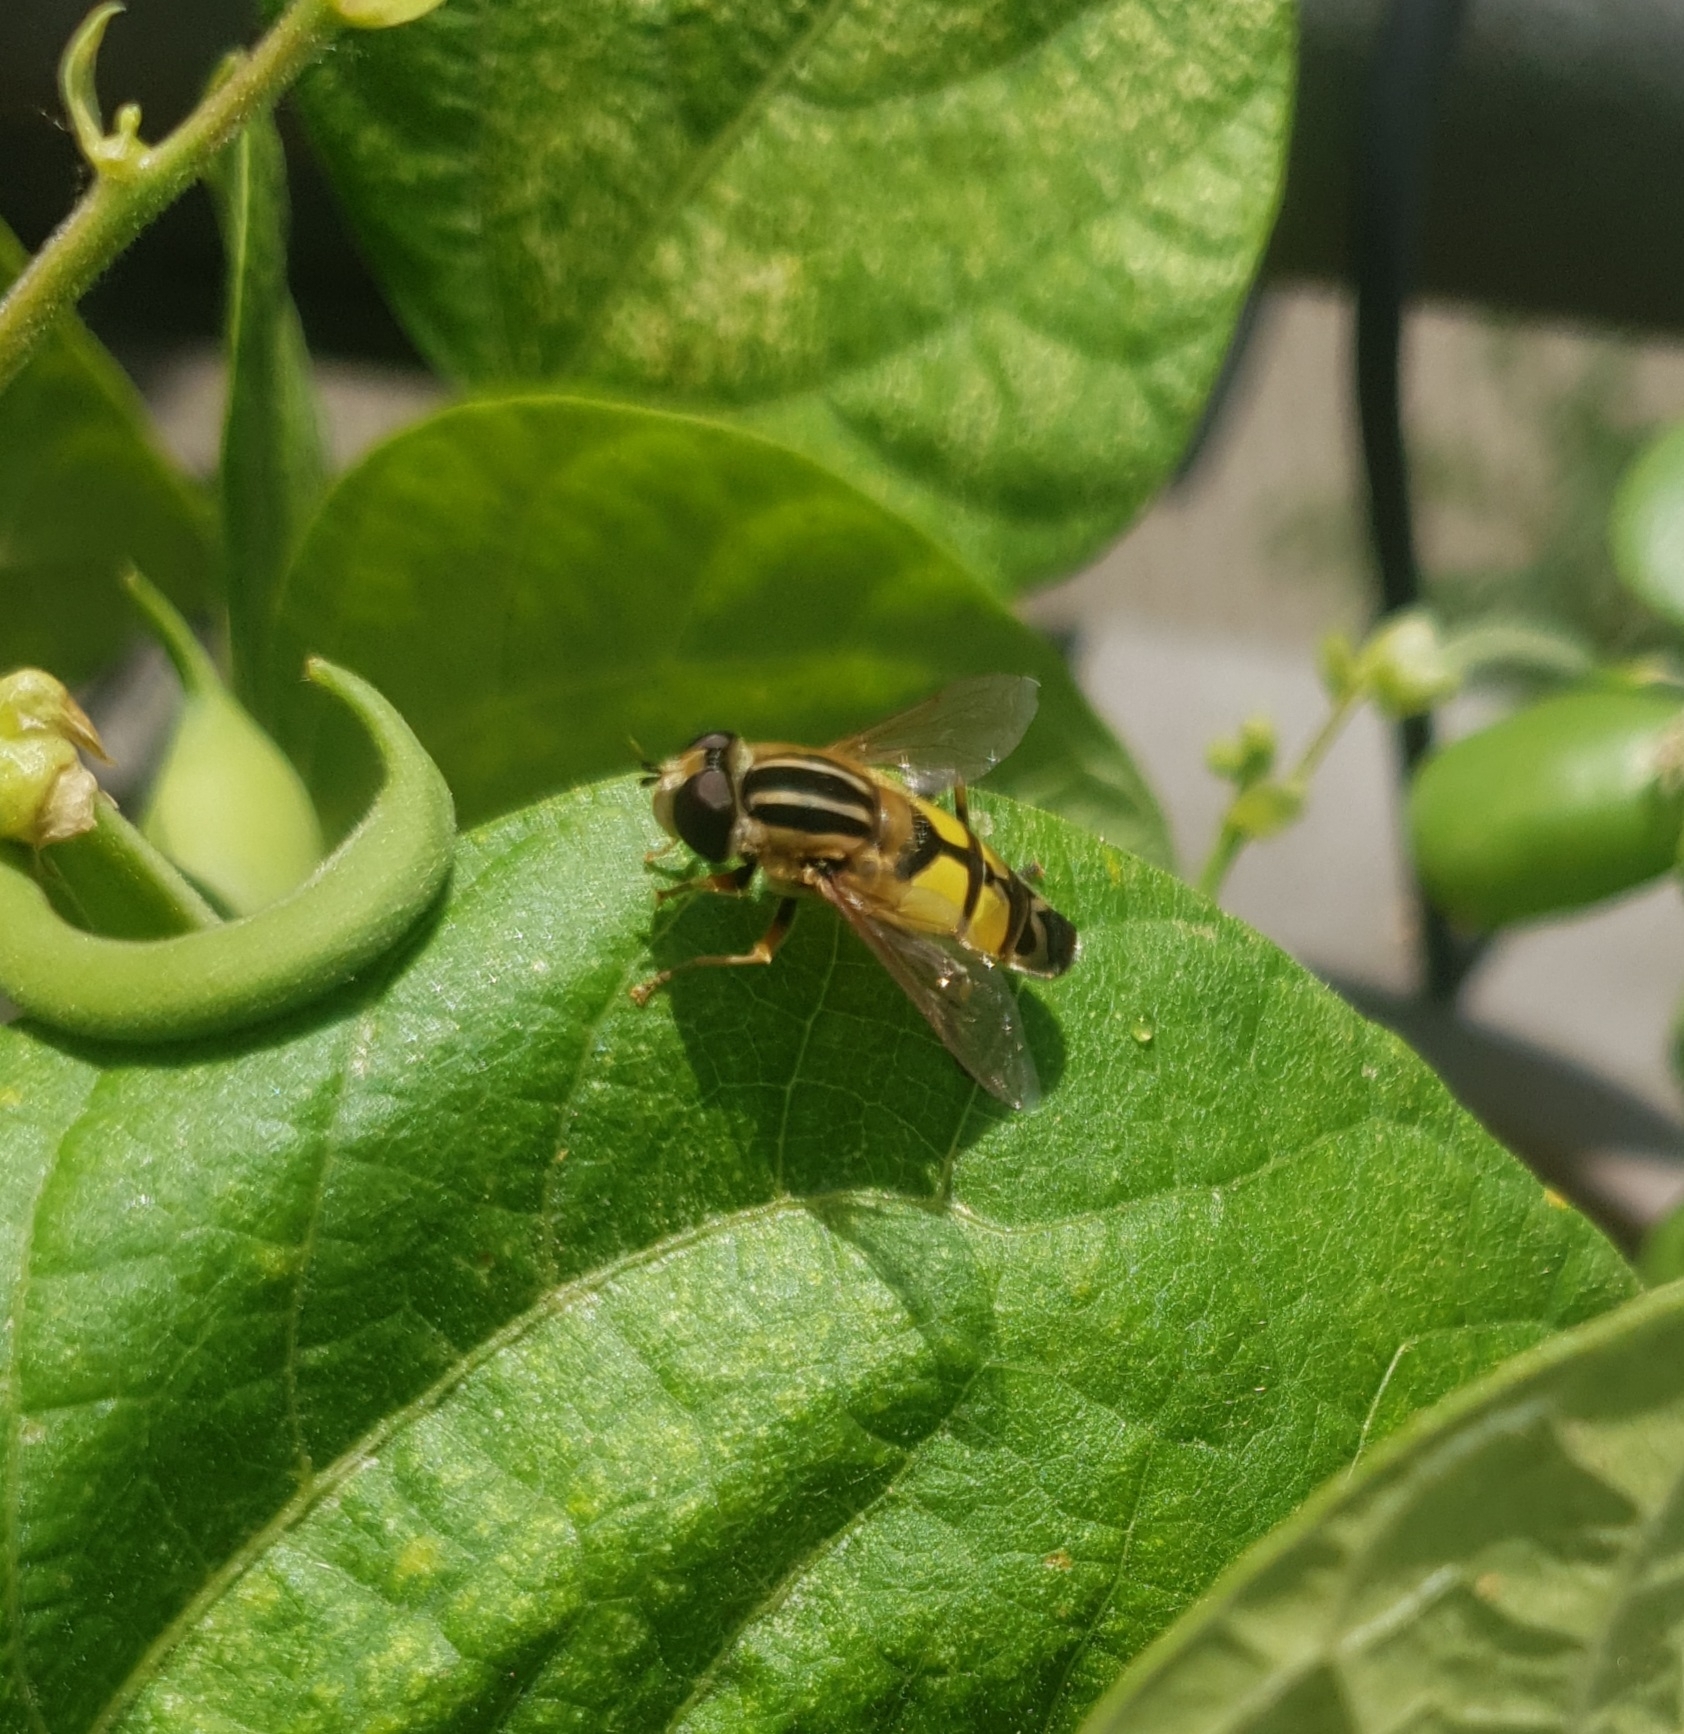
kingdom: Animalia
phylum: Arthropoda
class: Insecta
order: Diptera
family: Syrphidae
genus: Helophilus
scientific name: Helophilus trivittatus
